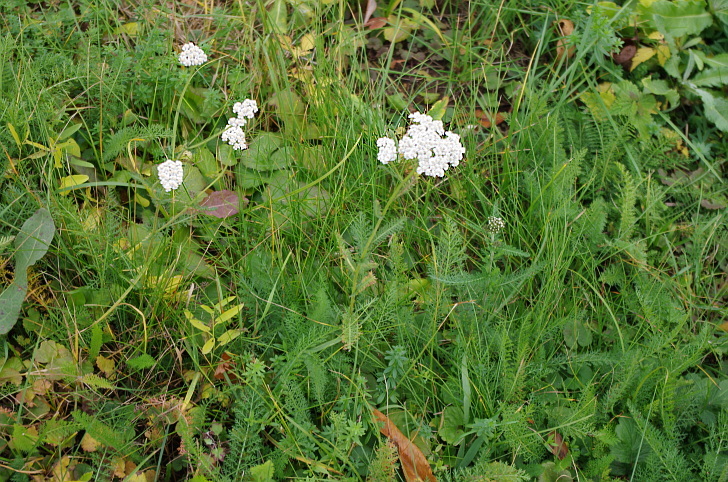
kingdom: Plantae
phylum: Tracheophyta
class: Magnoliopsida
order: Asterales
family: Asteraceae
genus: Achillea
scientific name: Achillea millefolium
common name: Yarrow
